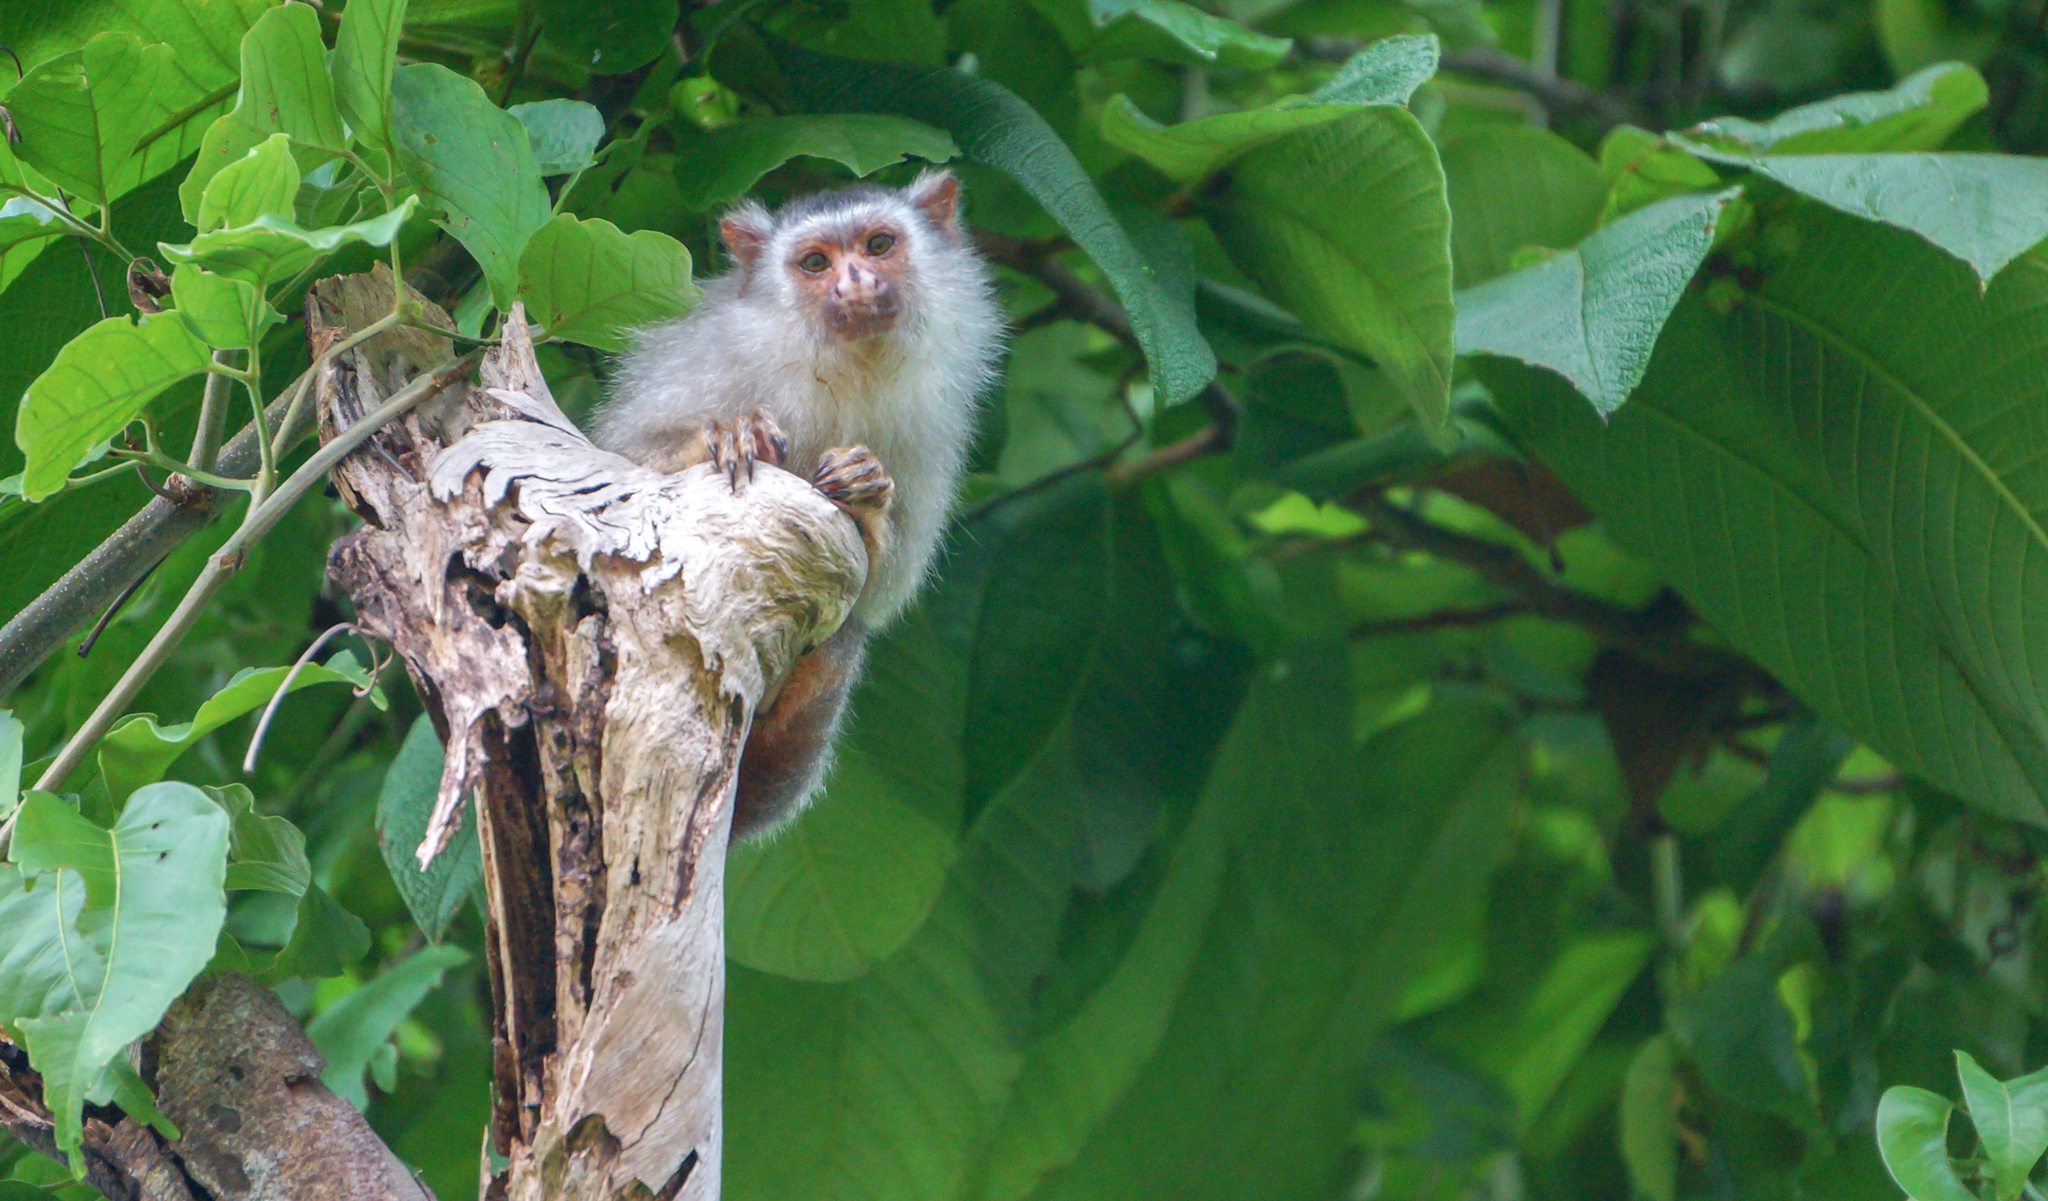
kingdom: Animalia
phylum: Chordata
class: Mammalia
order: Primates
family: Callitrichidae
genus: Mico
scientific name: Mico schneideri
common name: Schneider’s marmoset
